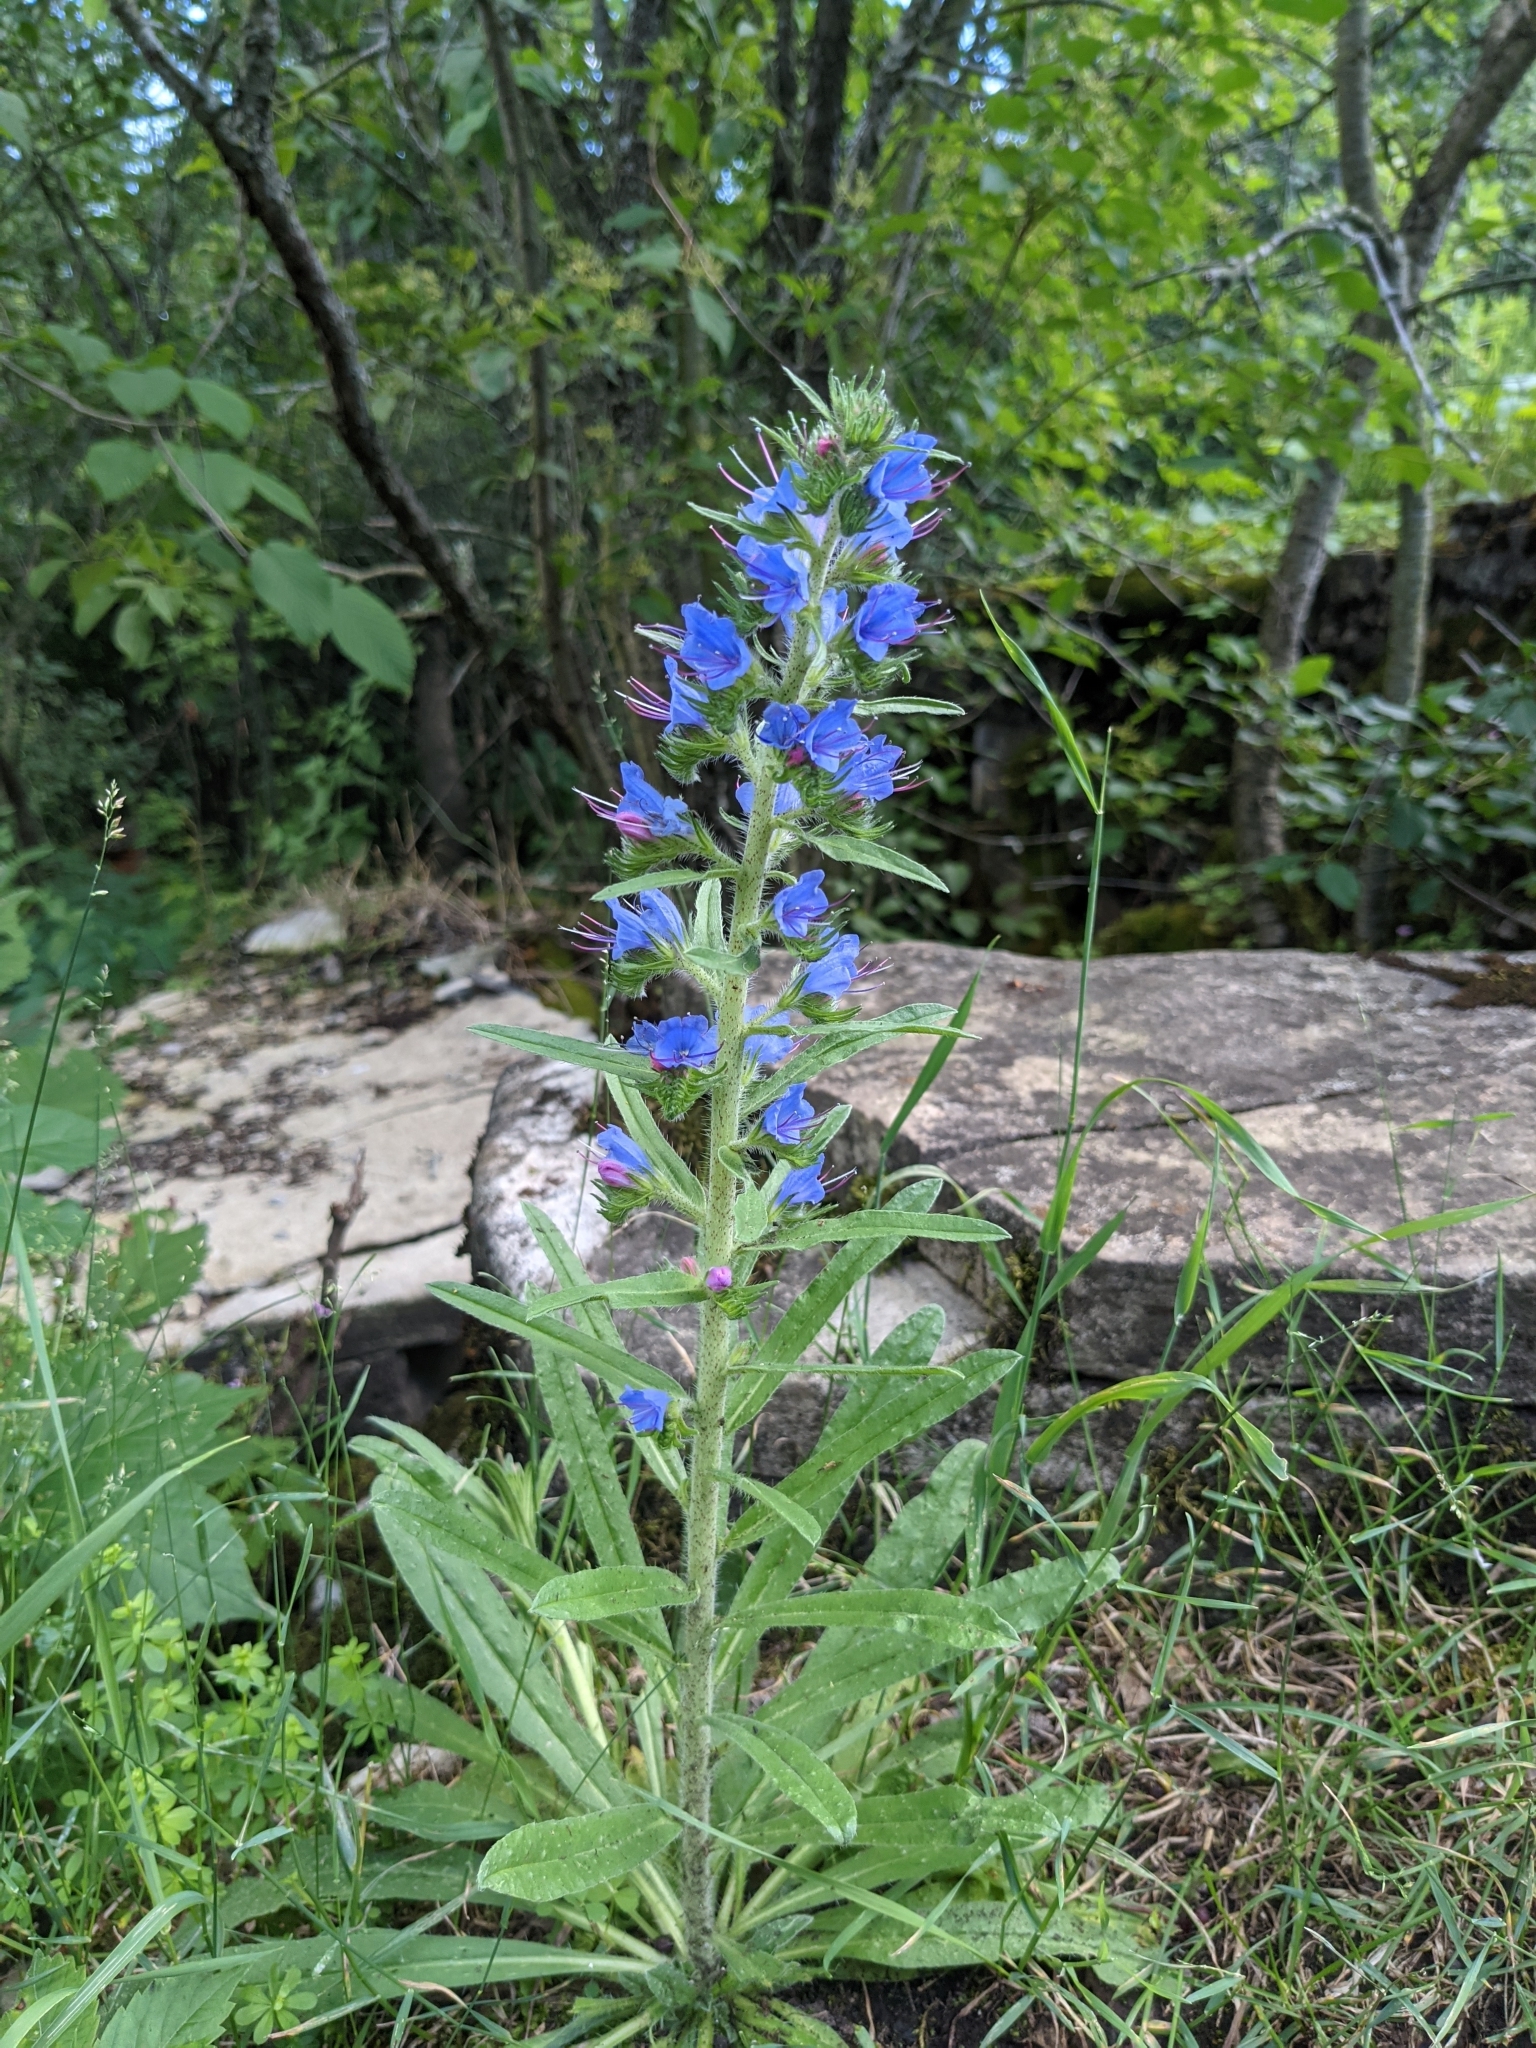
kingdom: Plantae
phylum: Tracheophyta
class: Magnoliopsida
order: Boraginales
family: Boraginaceae
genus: Echium
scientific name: Echium vulgare
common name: Common viper's bugloss
